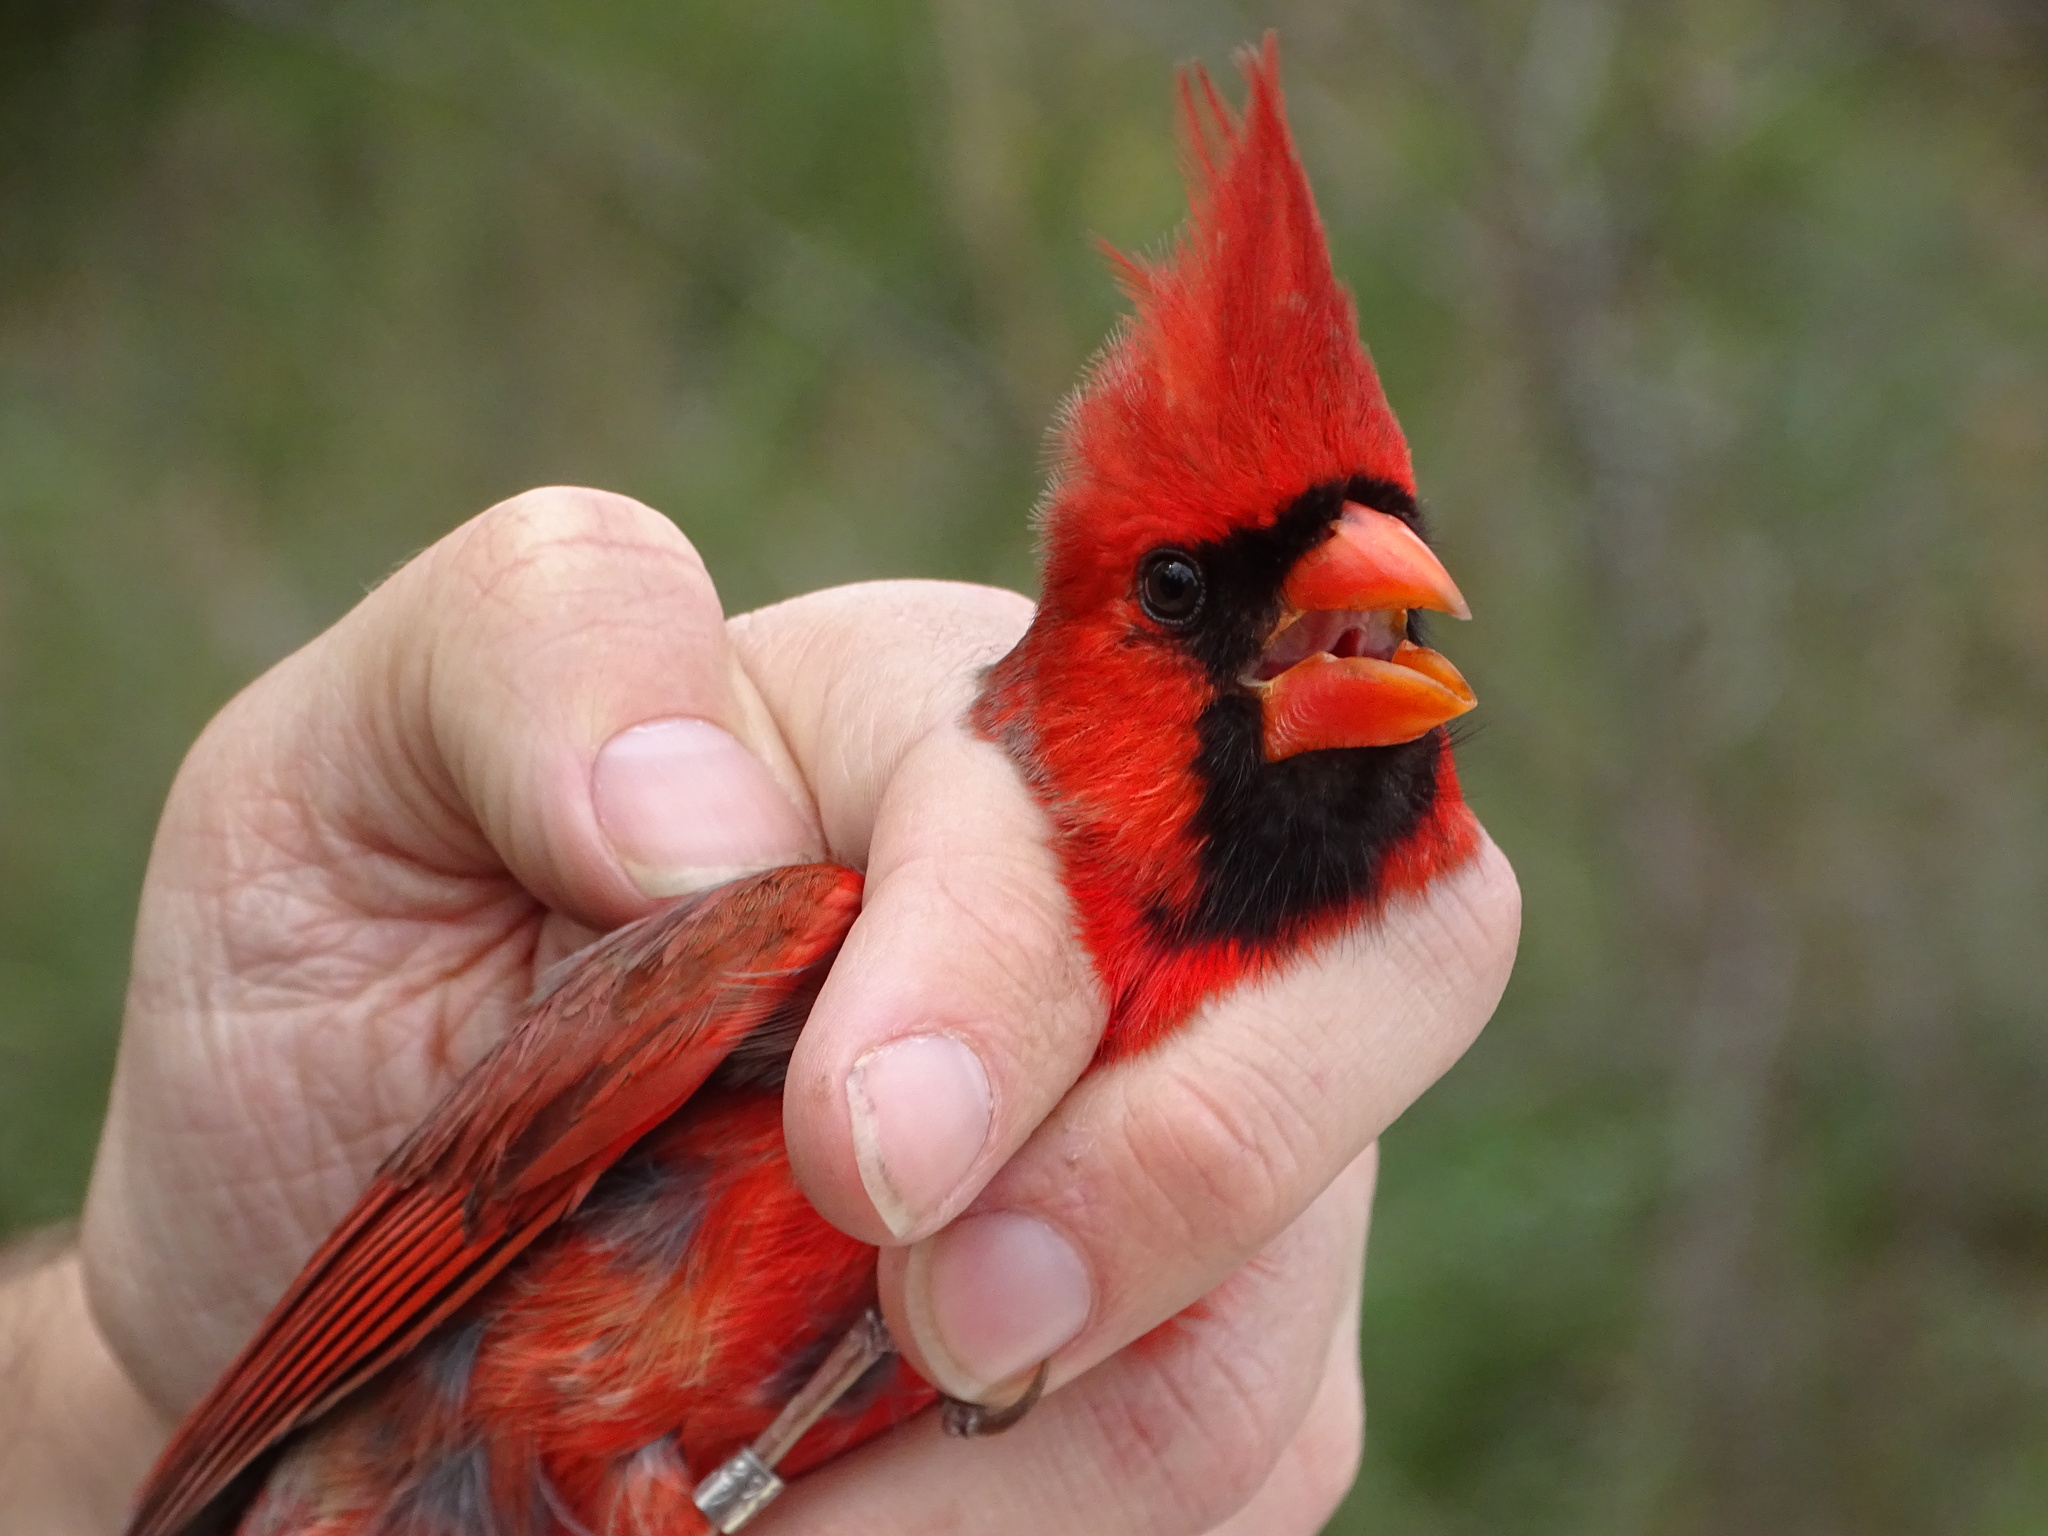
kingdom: Animalia
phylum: Chordata
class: Aves
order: Passeriformes
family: Cardinalidae
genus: Cardinalis
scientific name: Cardinalis cardinalis
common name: Northern cardinal
